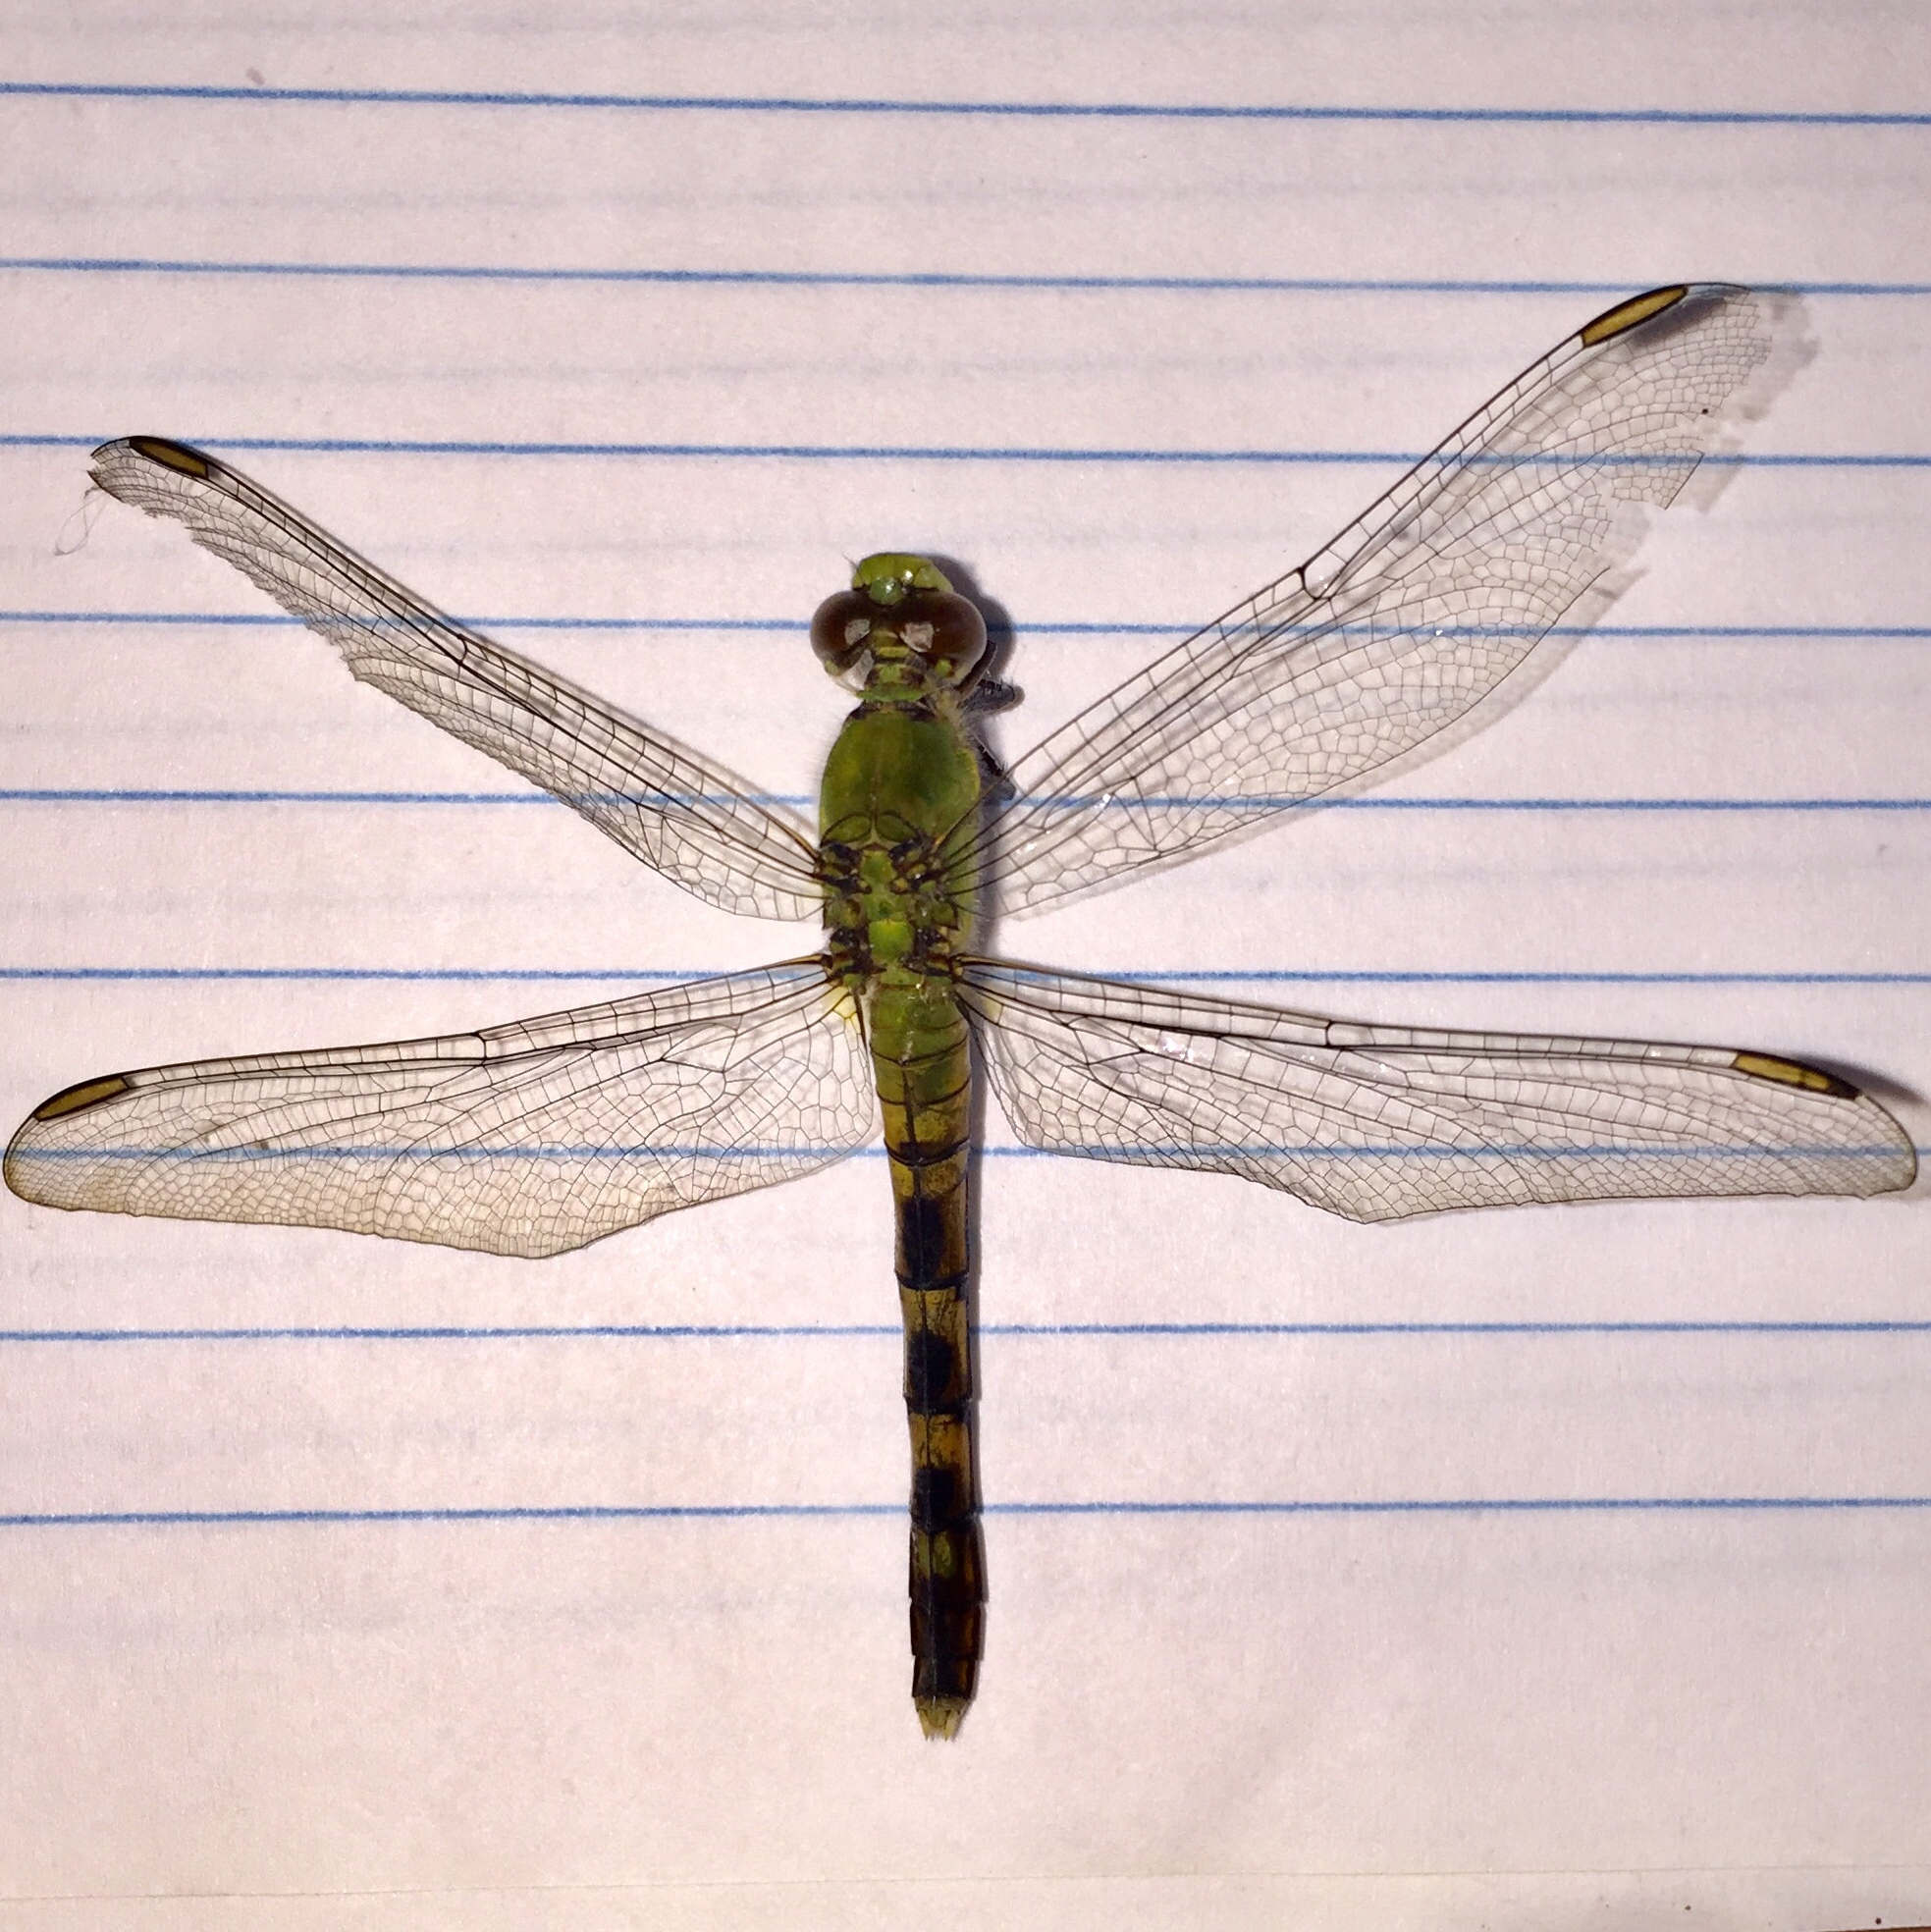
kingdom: Animalia
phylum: Arthropoda
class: Insecta
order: Odonata
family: Libellulidae
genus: Erythemis
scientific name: Erythemis simplicicollis
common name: Eastern pondhawk
